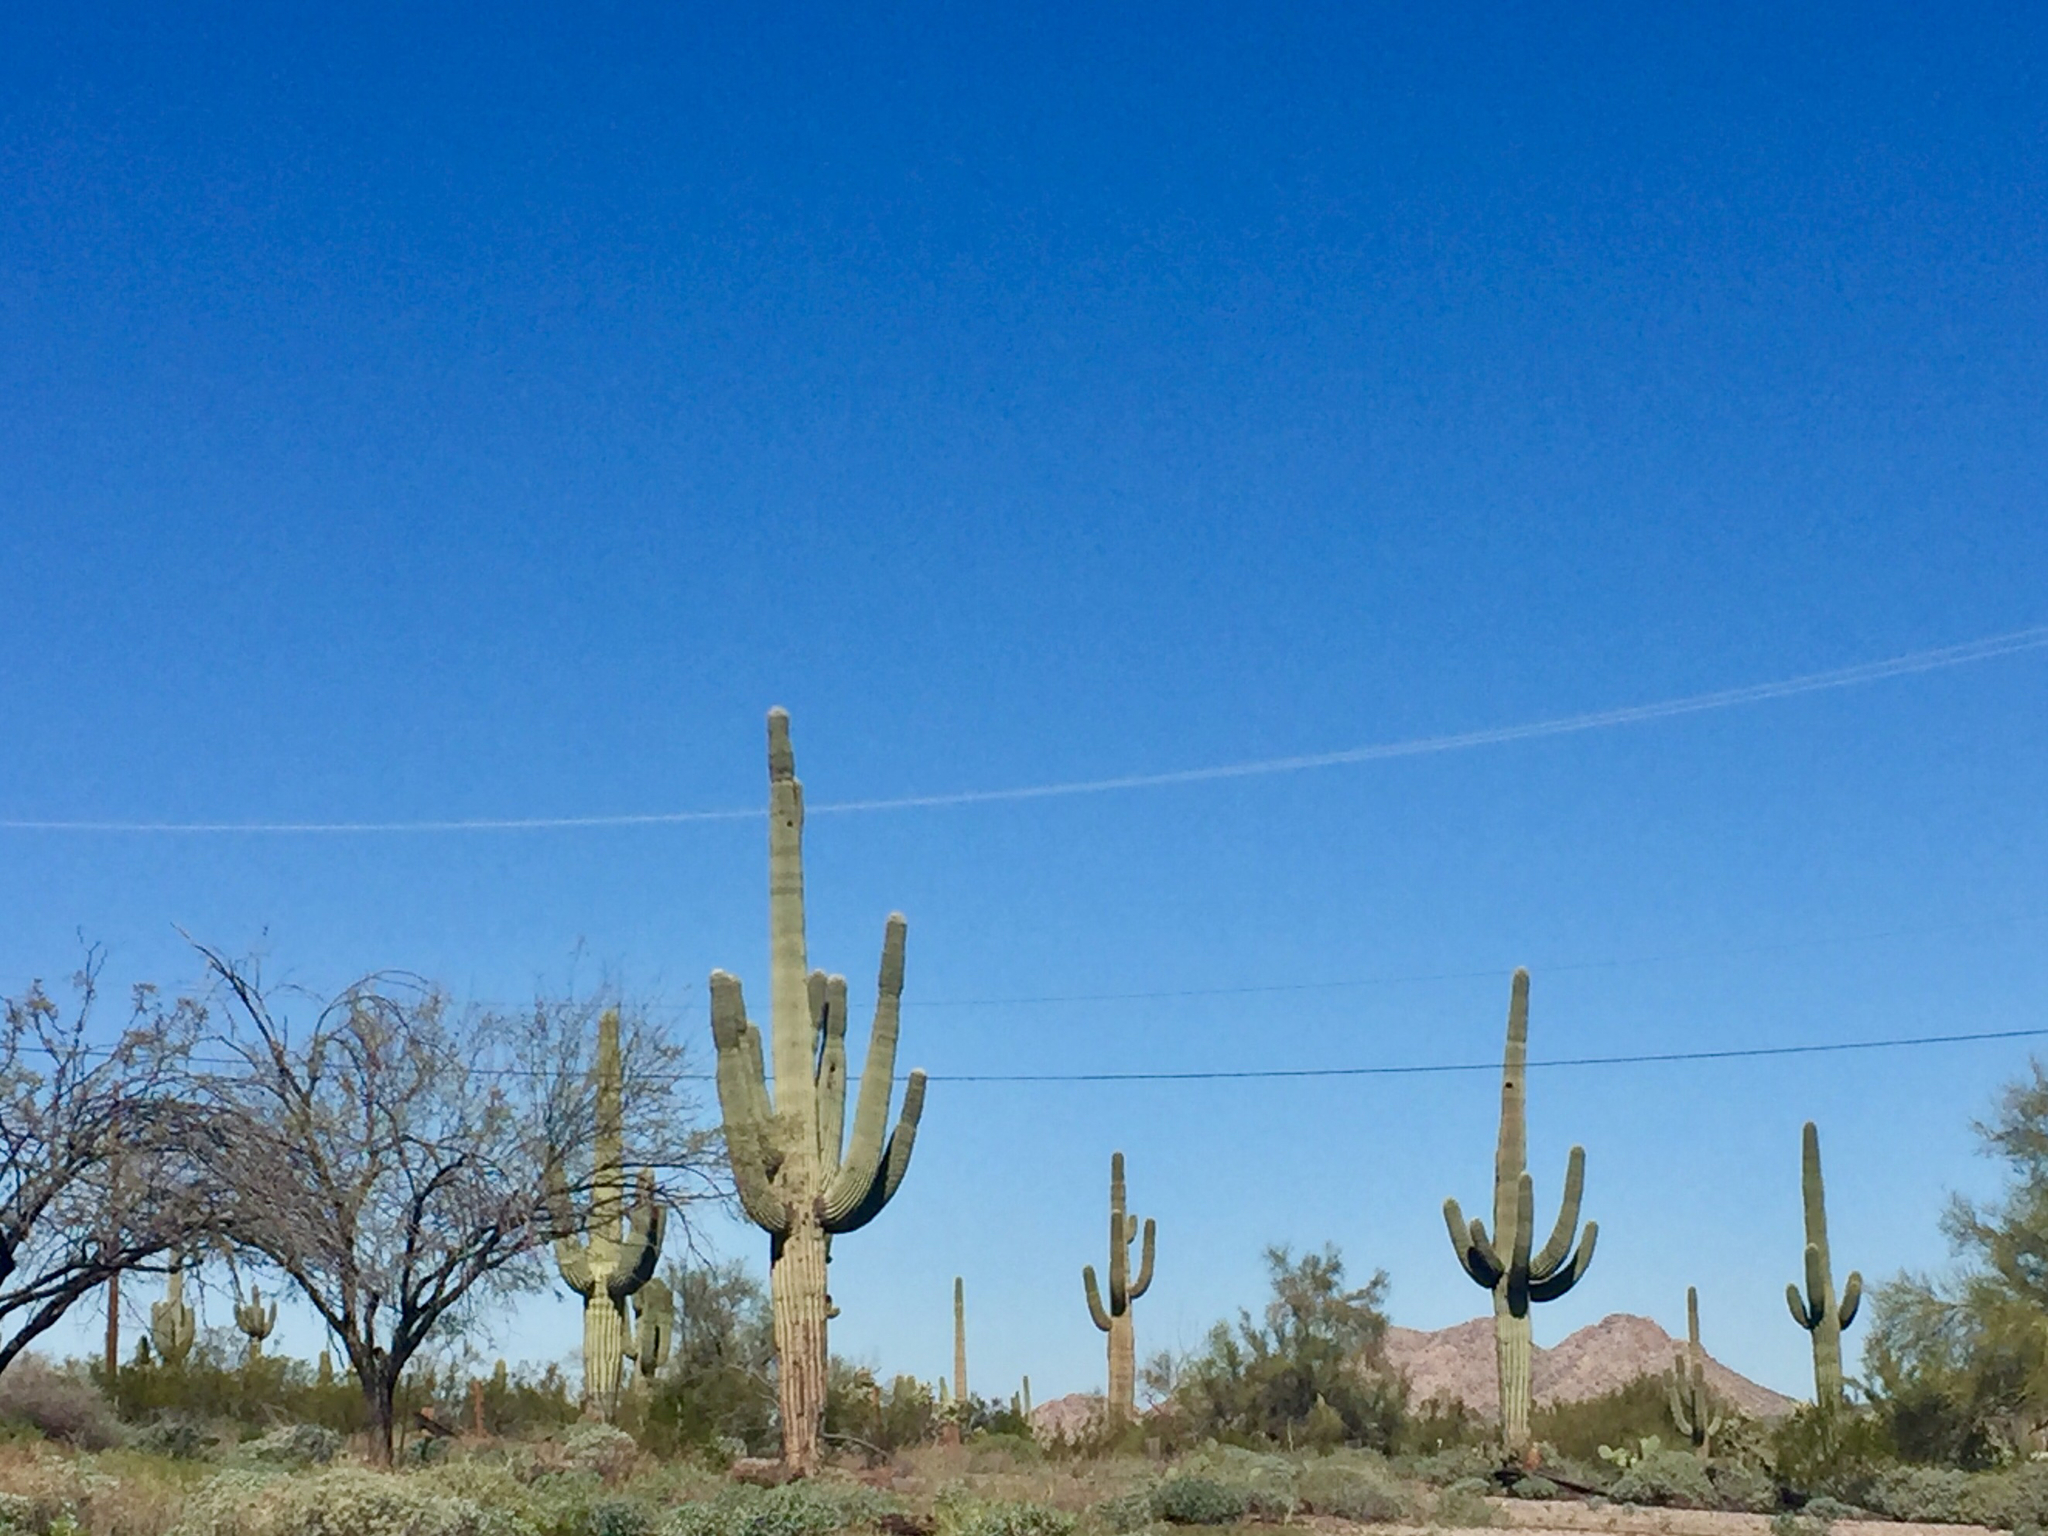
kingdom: Plantae
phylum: Tracheophyta
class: Magnoliopsida
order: Caryophyllales
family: Cactaceae
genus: Carnegiea
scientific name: Carnegiea gigantea
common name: Saguaro
